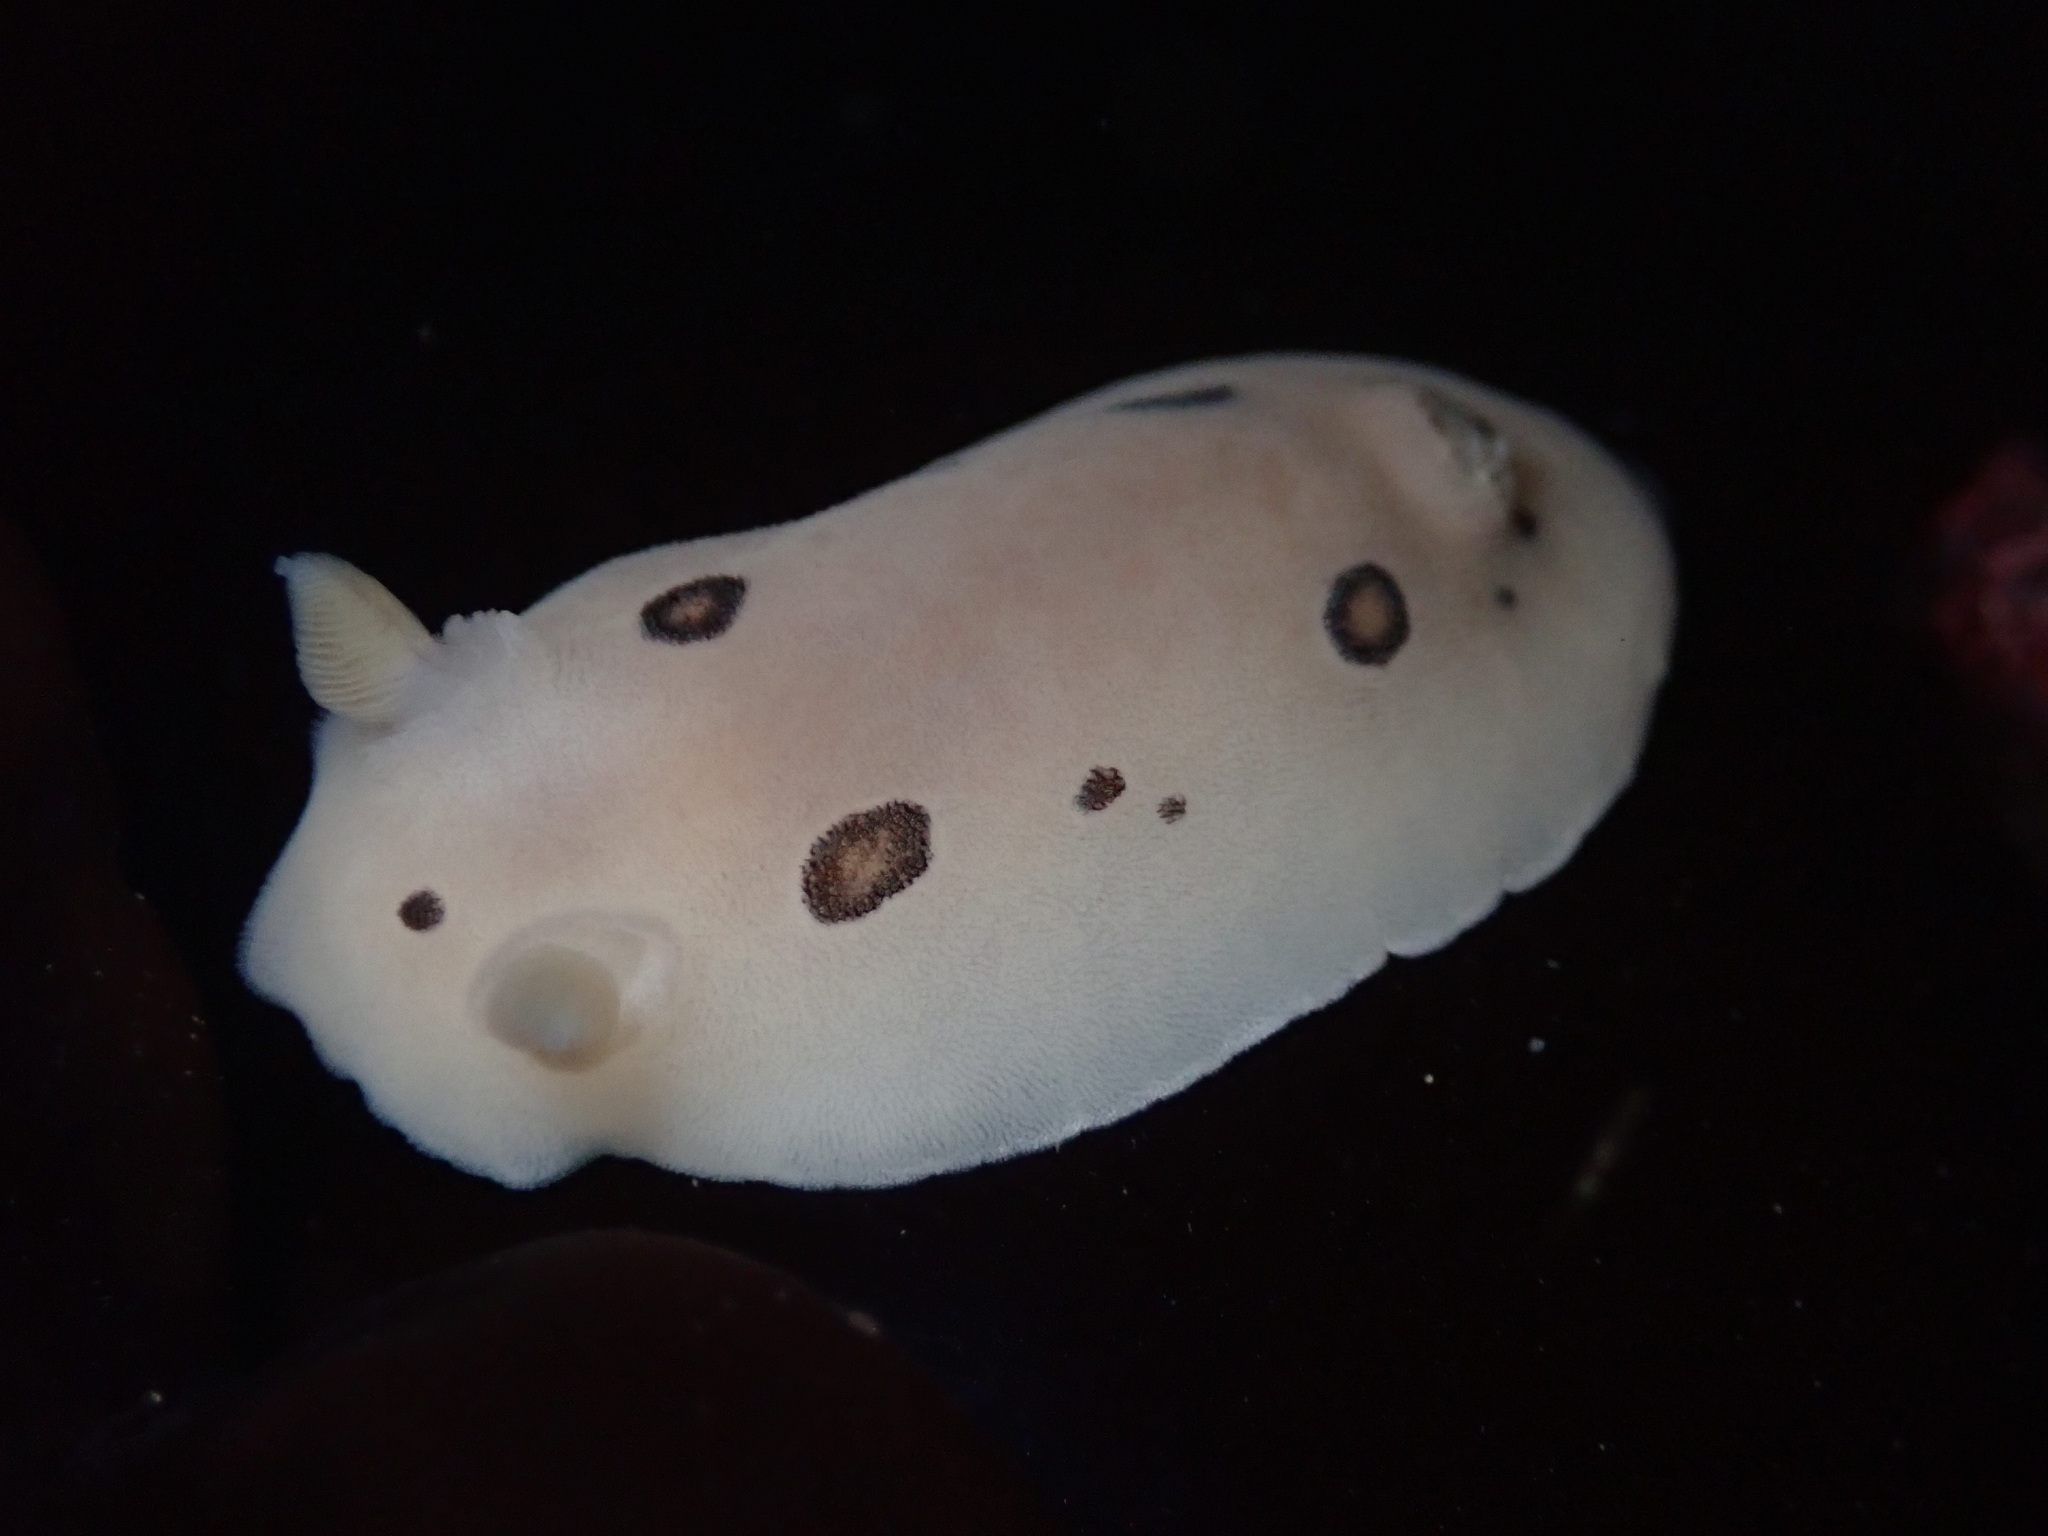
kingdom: Animalia
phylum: Mollusca
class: Gastropoda
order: Nudibranchia
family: Discodorididae
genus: Diaulula
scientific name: Diaulula sandiegensis
